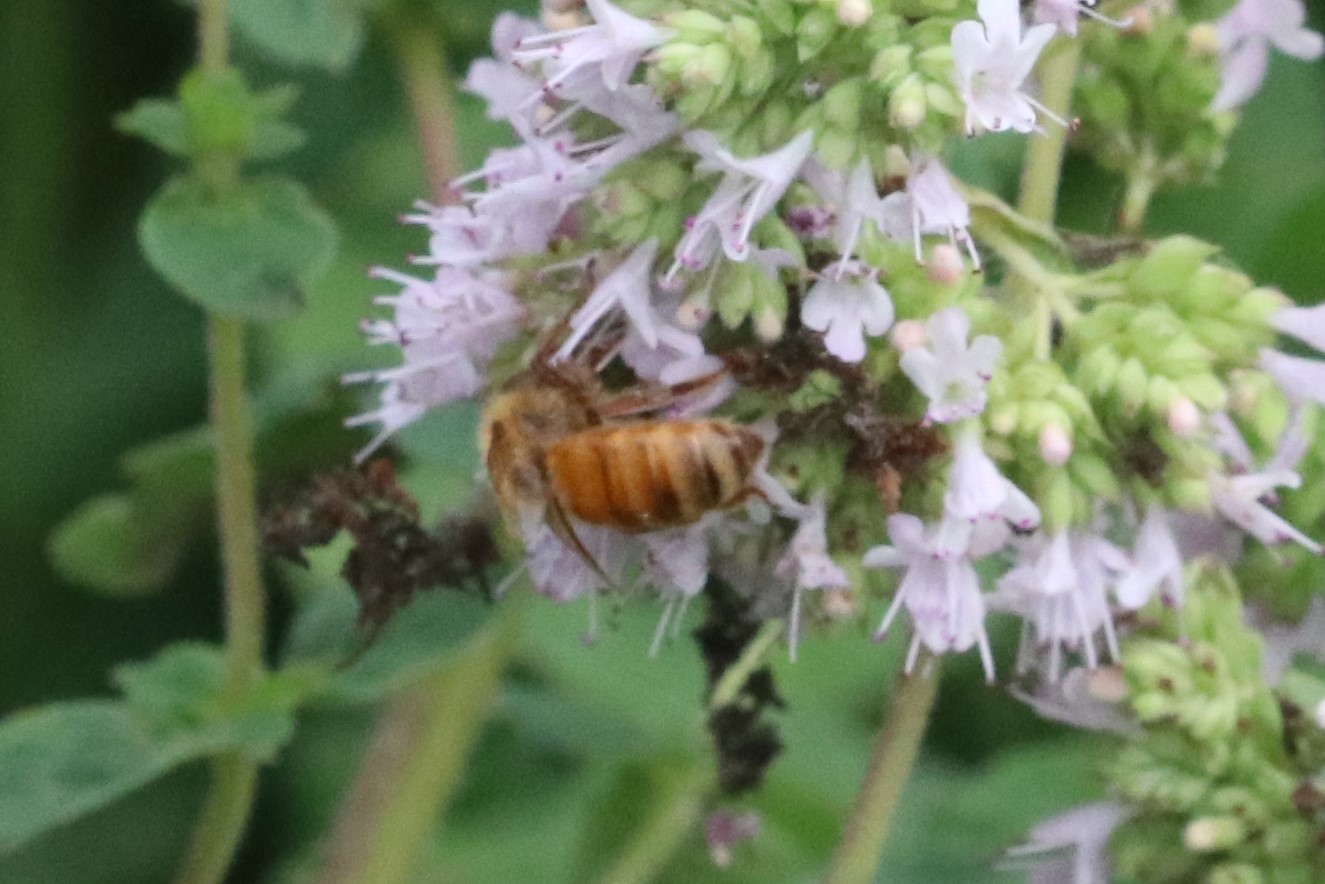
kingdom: Animalia
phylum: Arthropoda
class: Insecta
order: Hymenoptera
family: Apidae
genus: Apis
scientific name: Apis mellifera
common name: Honey bee
